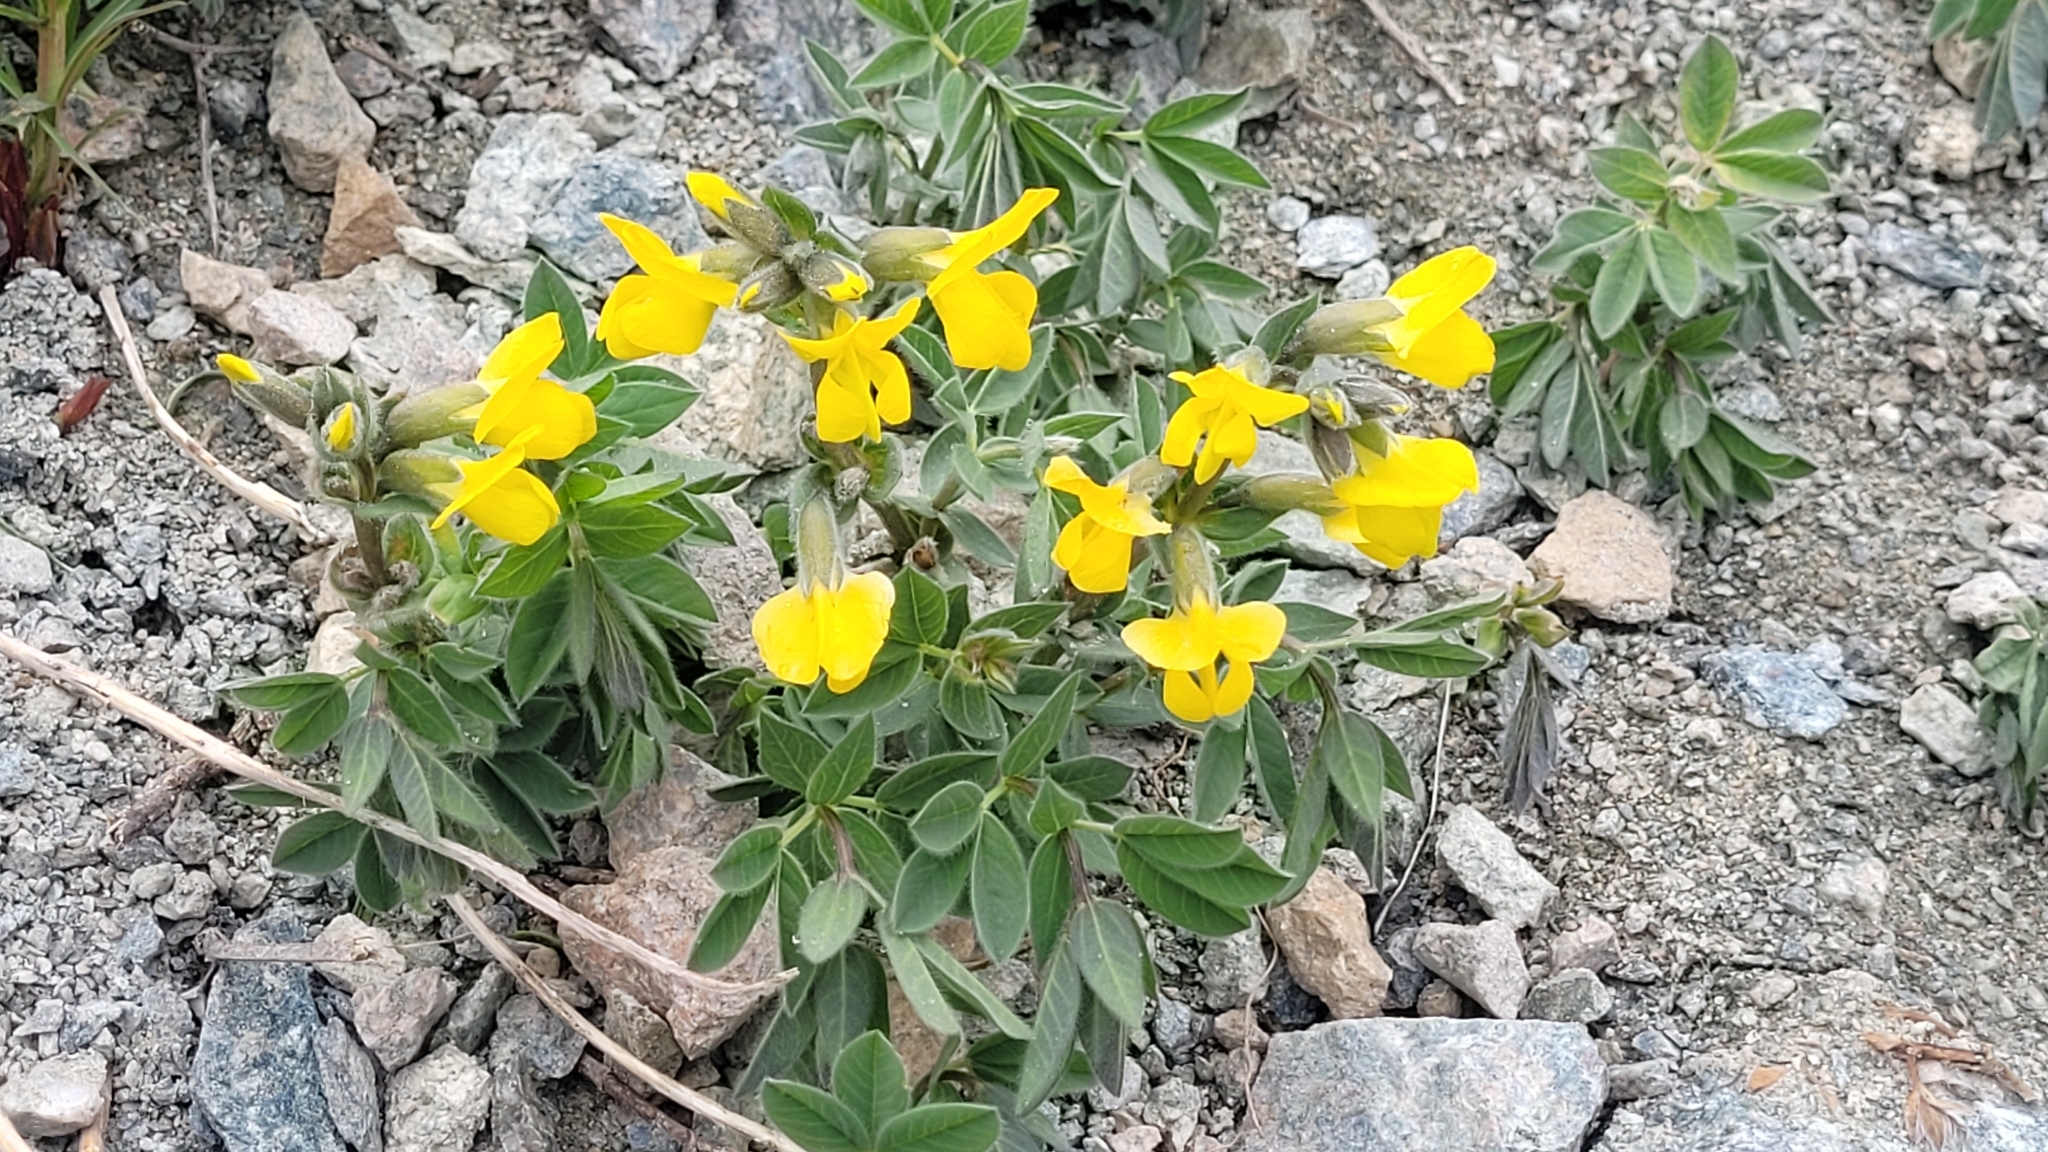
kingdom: Plantae
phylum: Tracheophyta
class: Magnoliopsida
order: Fabales
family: Fabaceae
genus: Thermopsis
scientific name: Thermopsis alpina
